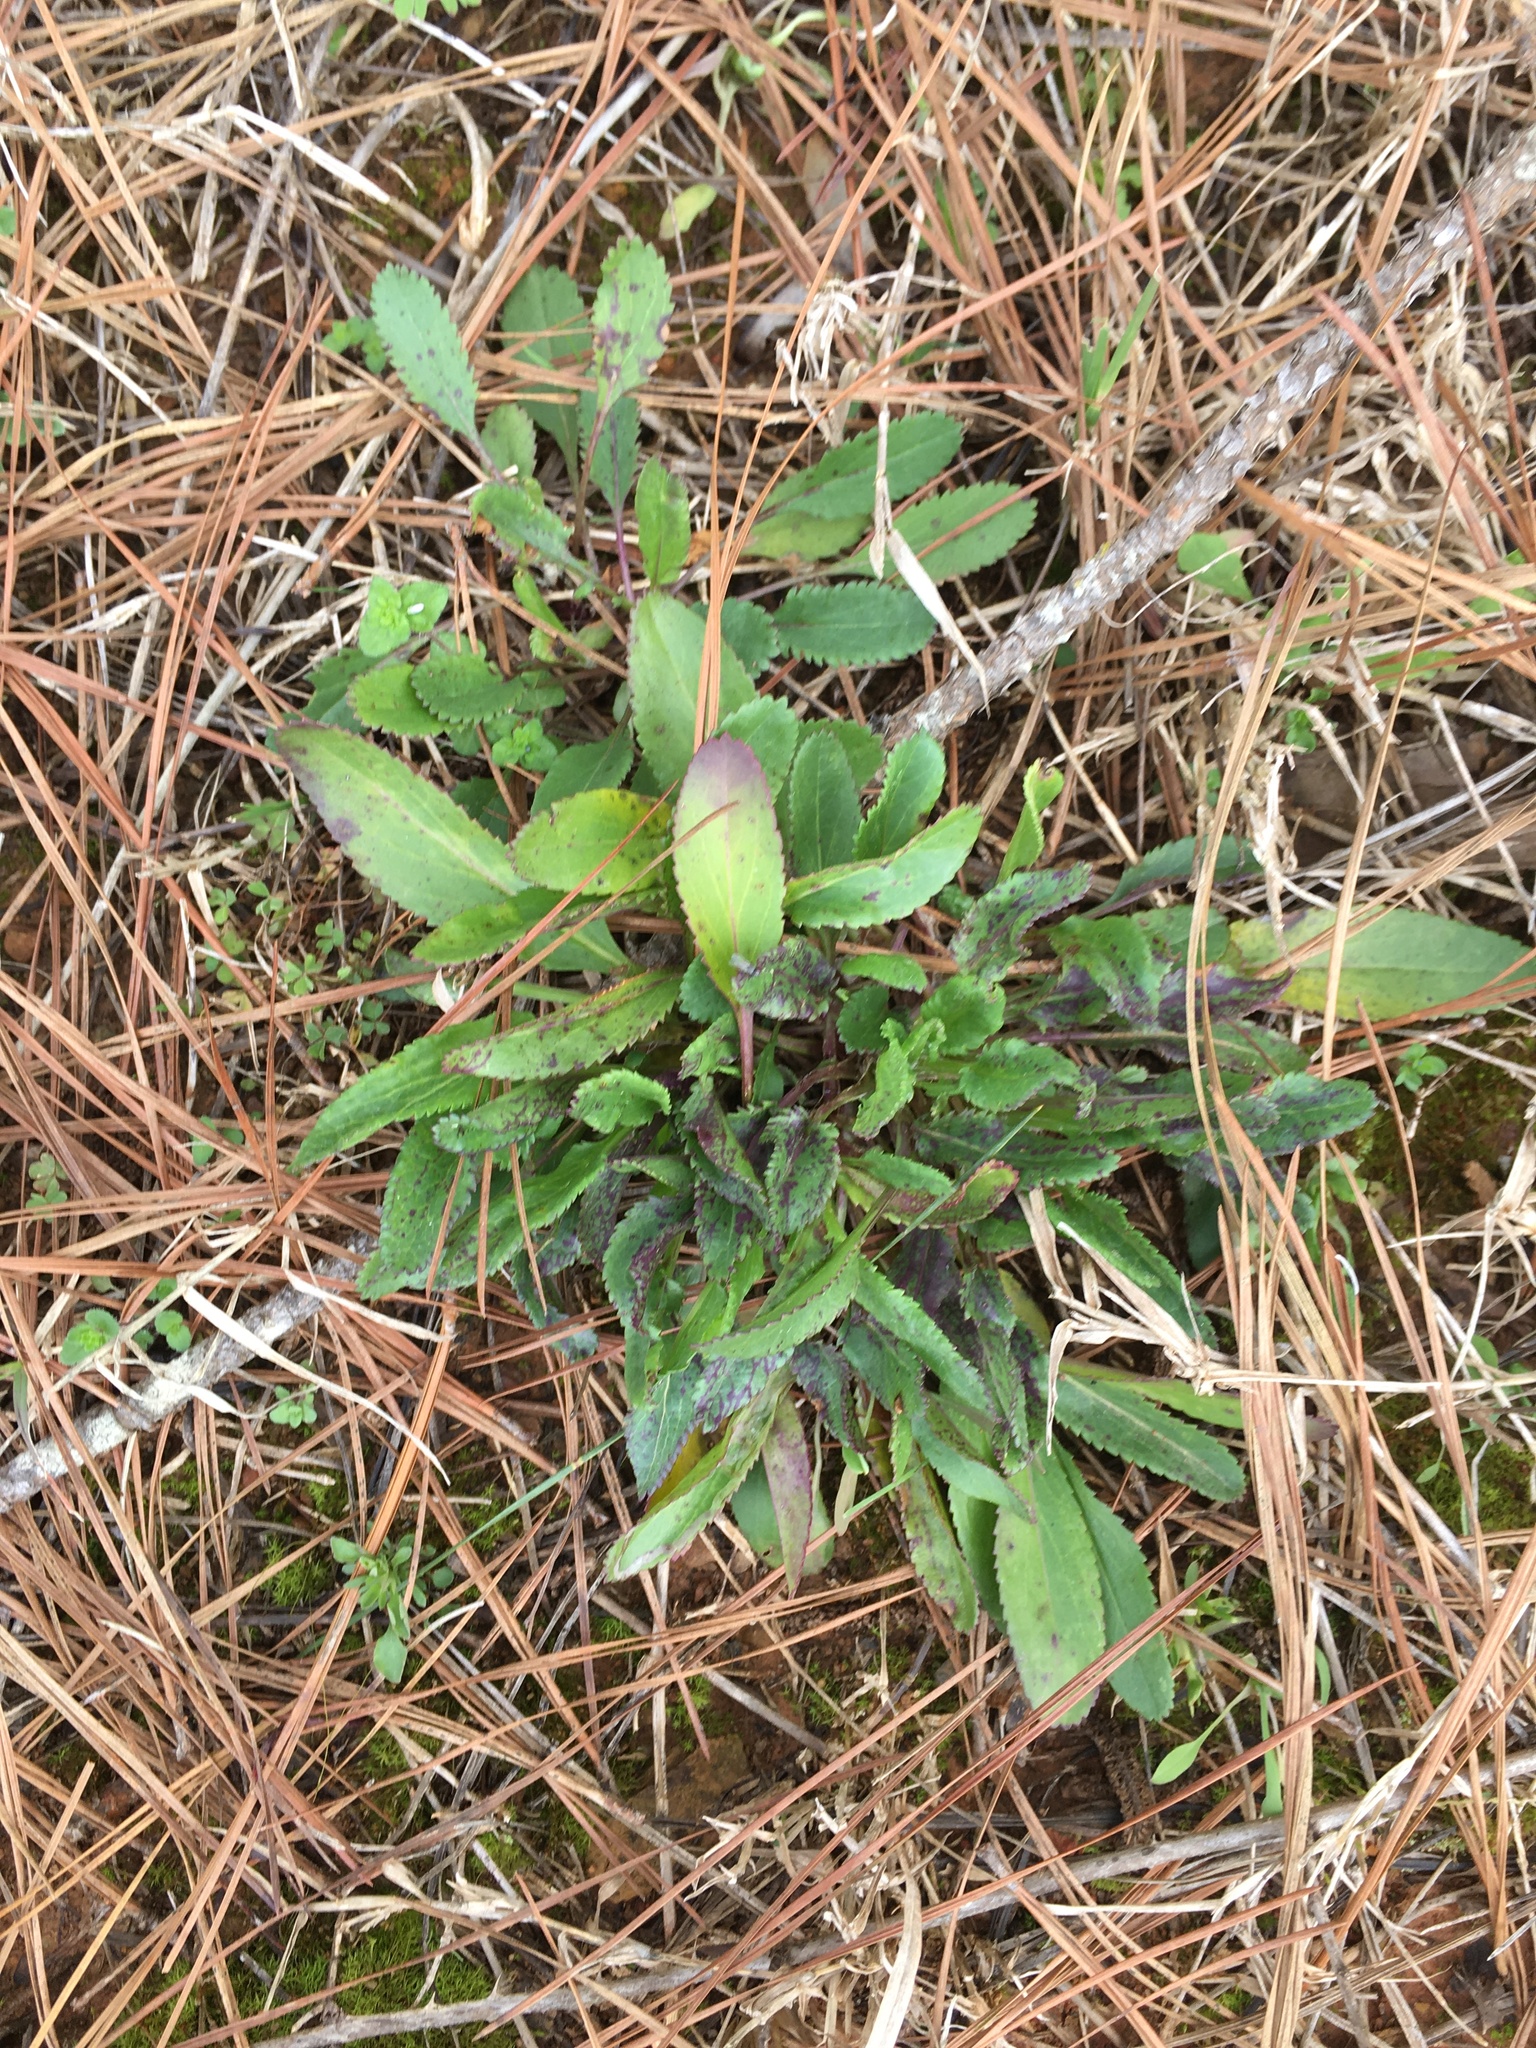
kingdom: Plantae
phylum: Tracheophyta
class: Magnoliopsida
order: Asterales
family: Asteraceae
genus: Packera
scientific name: Packera anonyma
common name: Small ragwort
